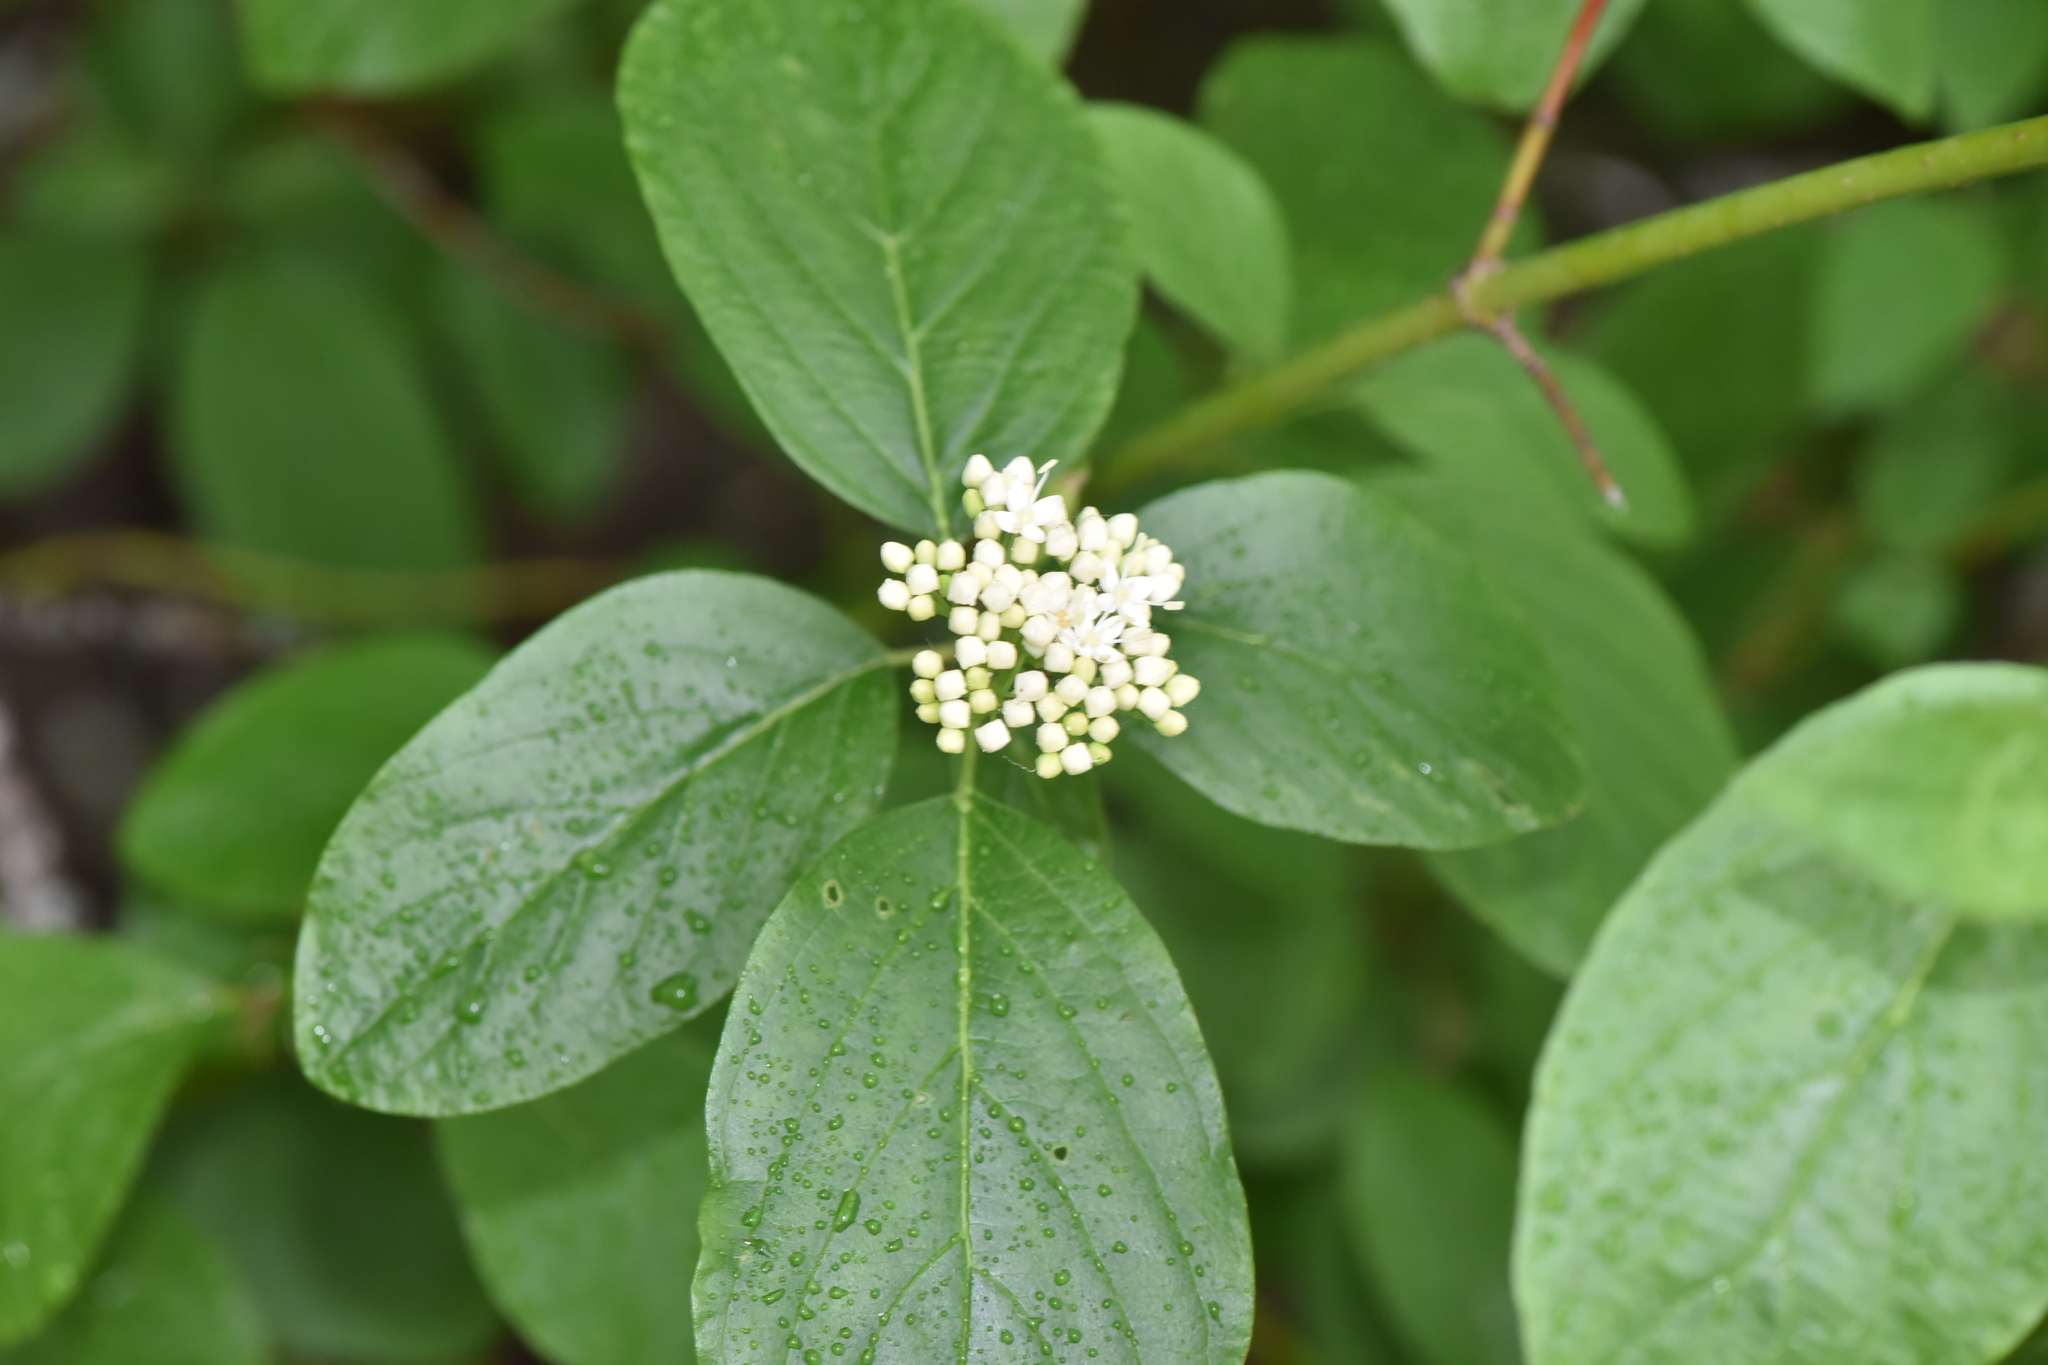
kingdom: Plantae
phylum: Tracheophyta
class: Magnoliopsida
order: Cornales
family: Cornaceae
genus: Cornus
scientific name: Cornus sericea
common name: Red-osier dogwood
